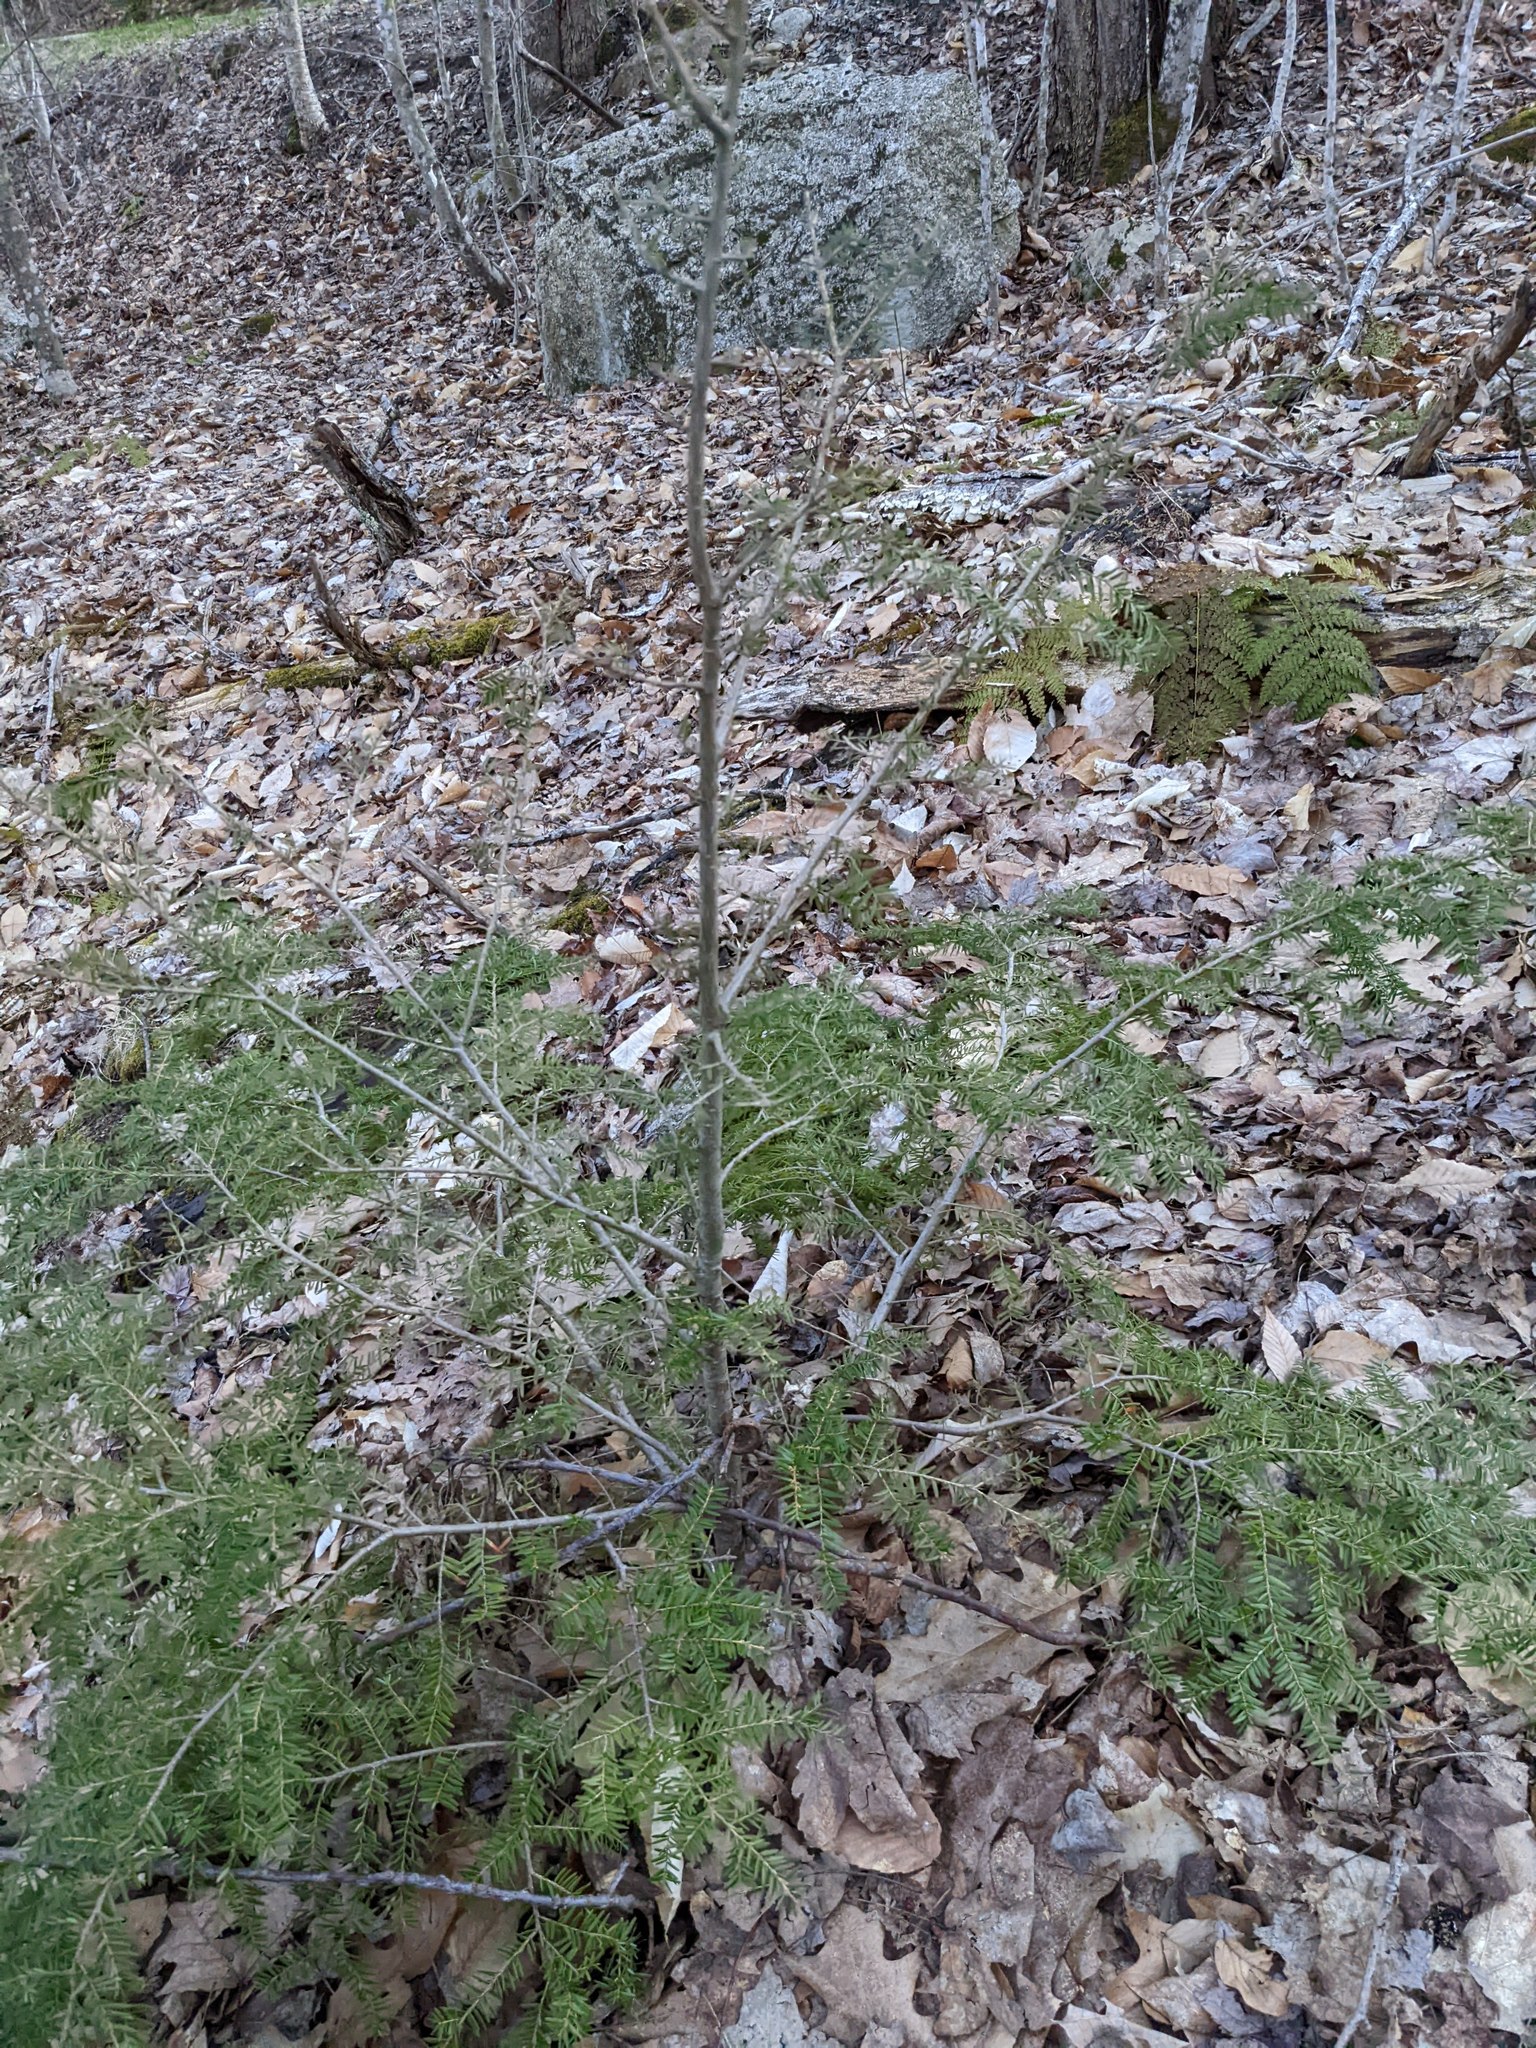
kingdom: Plantae
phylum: Tracheophyta
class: Pinopsida
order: Pinales
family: Pinaceae
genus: Tsuga
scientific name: Tsuga canadensis
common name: Eastern hemlock
